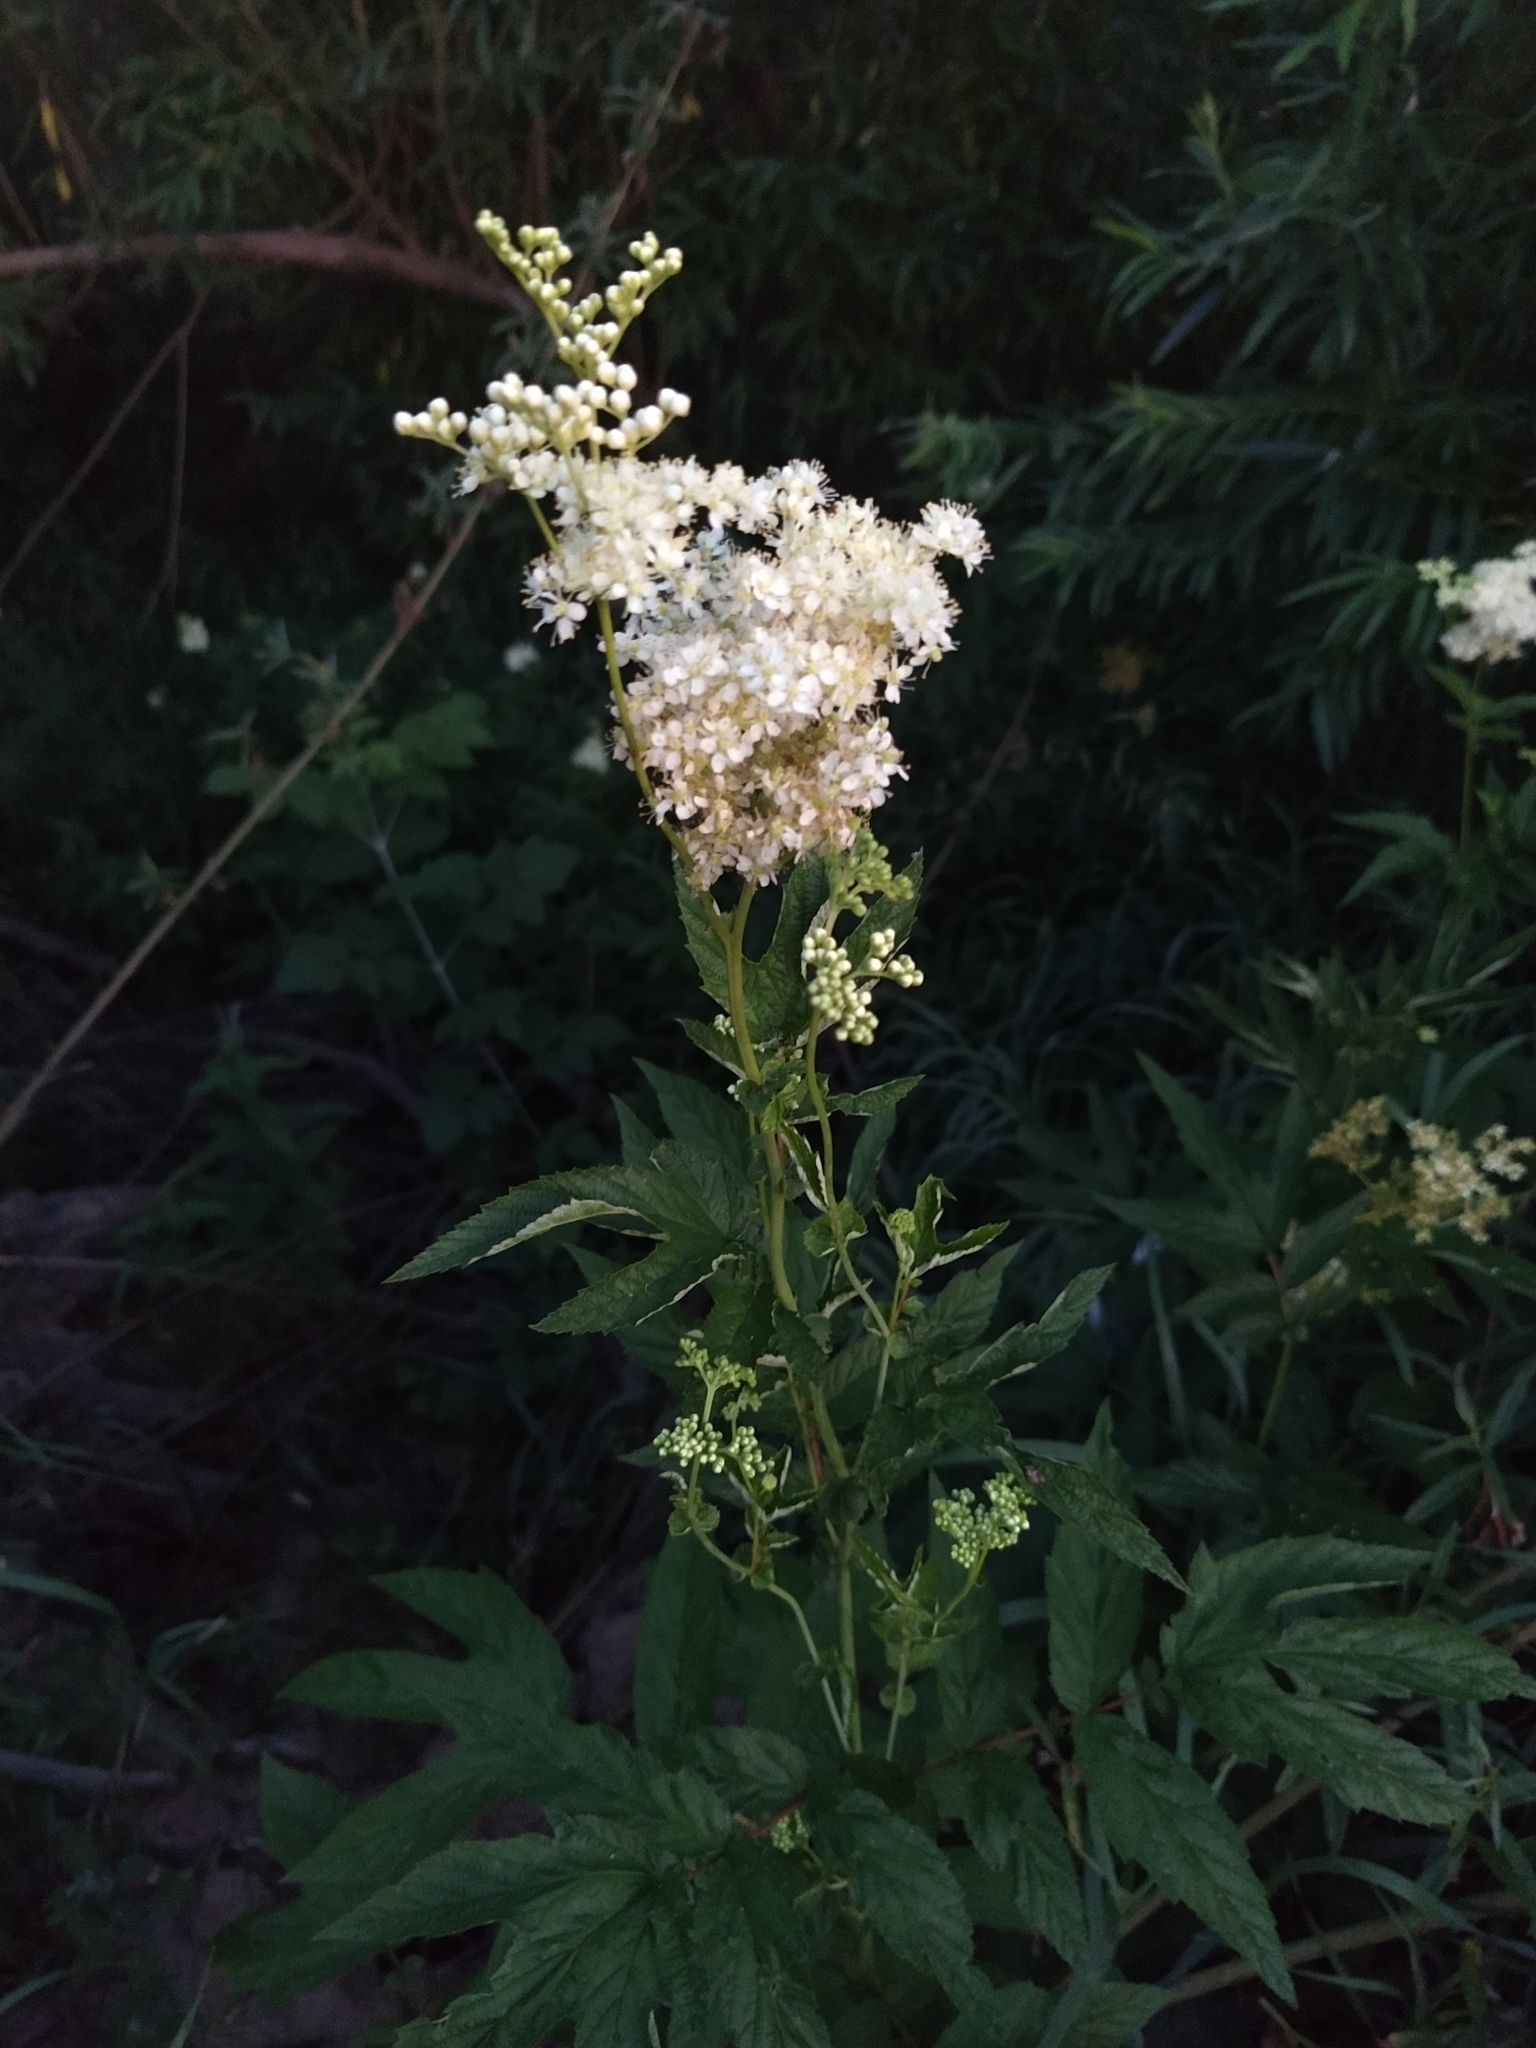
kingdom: Plantae
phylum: Tracheophyta
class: Magnoliopsida
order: Rosales
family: Rosaceae
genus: Filipendula
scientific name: Filipendula ulmaria
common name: Meadowsweet
